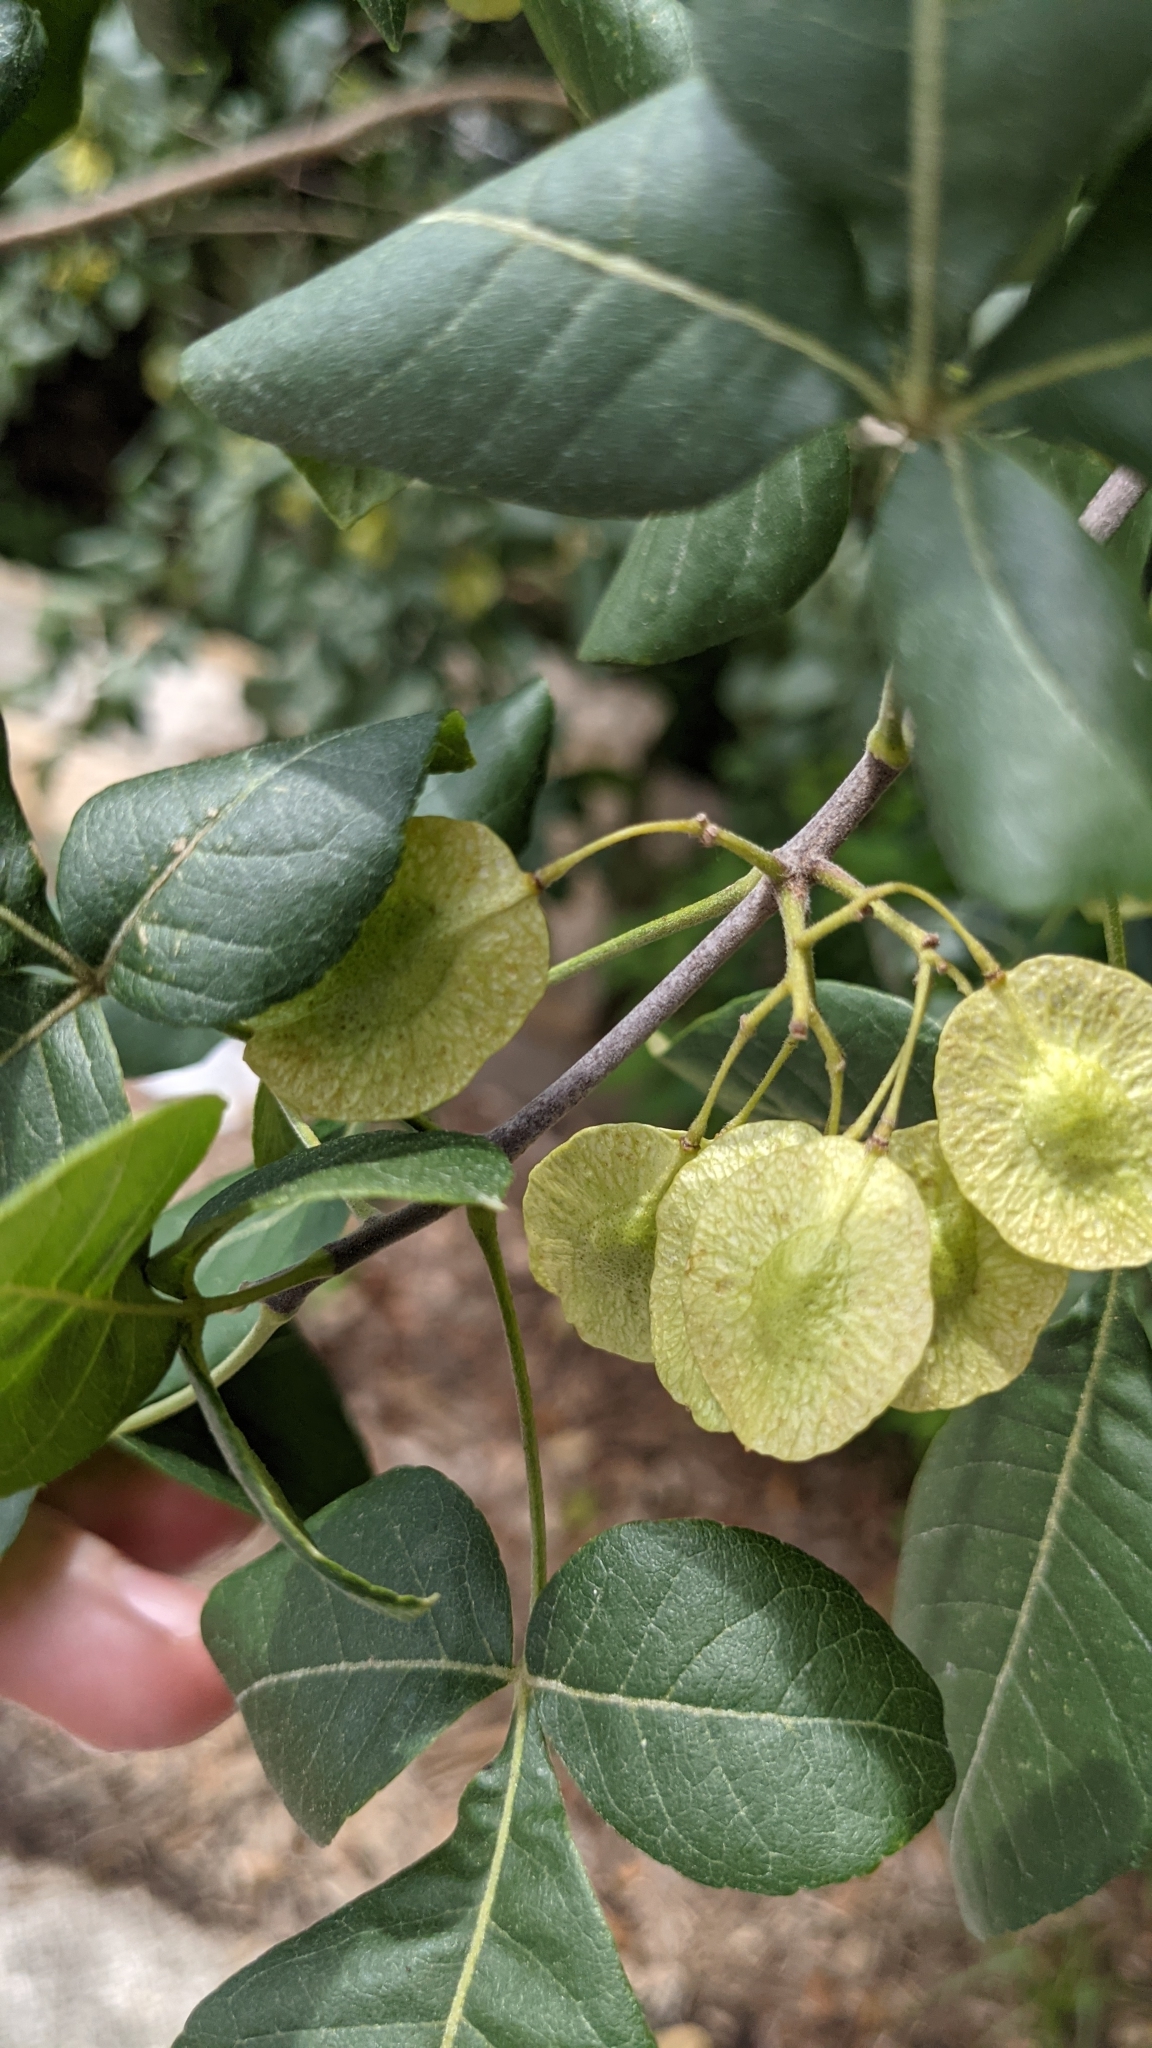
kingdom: Plantae
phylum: Tracheophyta
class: Magnoliopsida
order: Sapindales
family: Rutaceae
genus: Ptelea
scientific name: Ptelea trifoliata
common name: Common hop-tree
